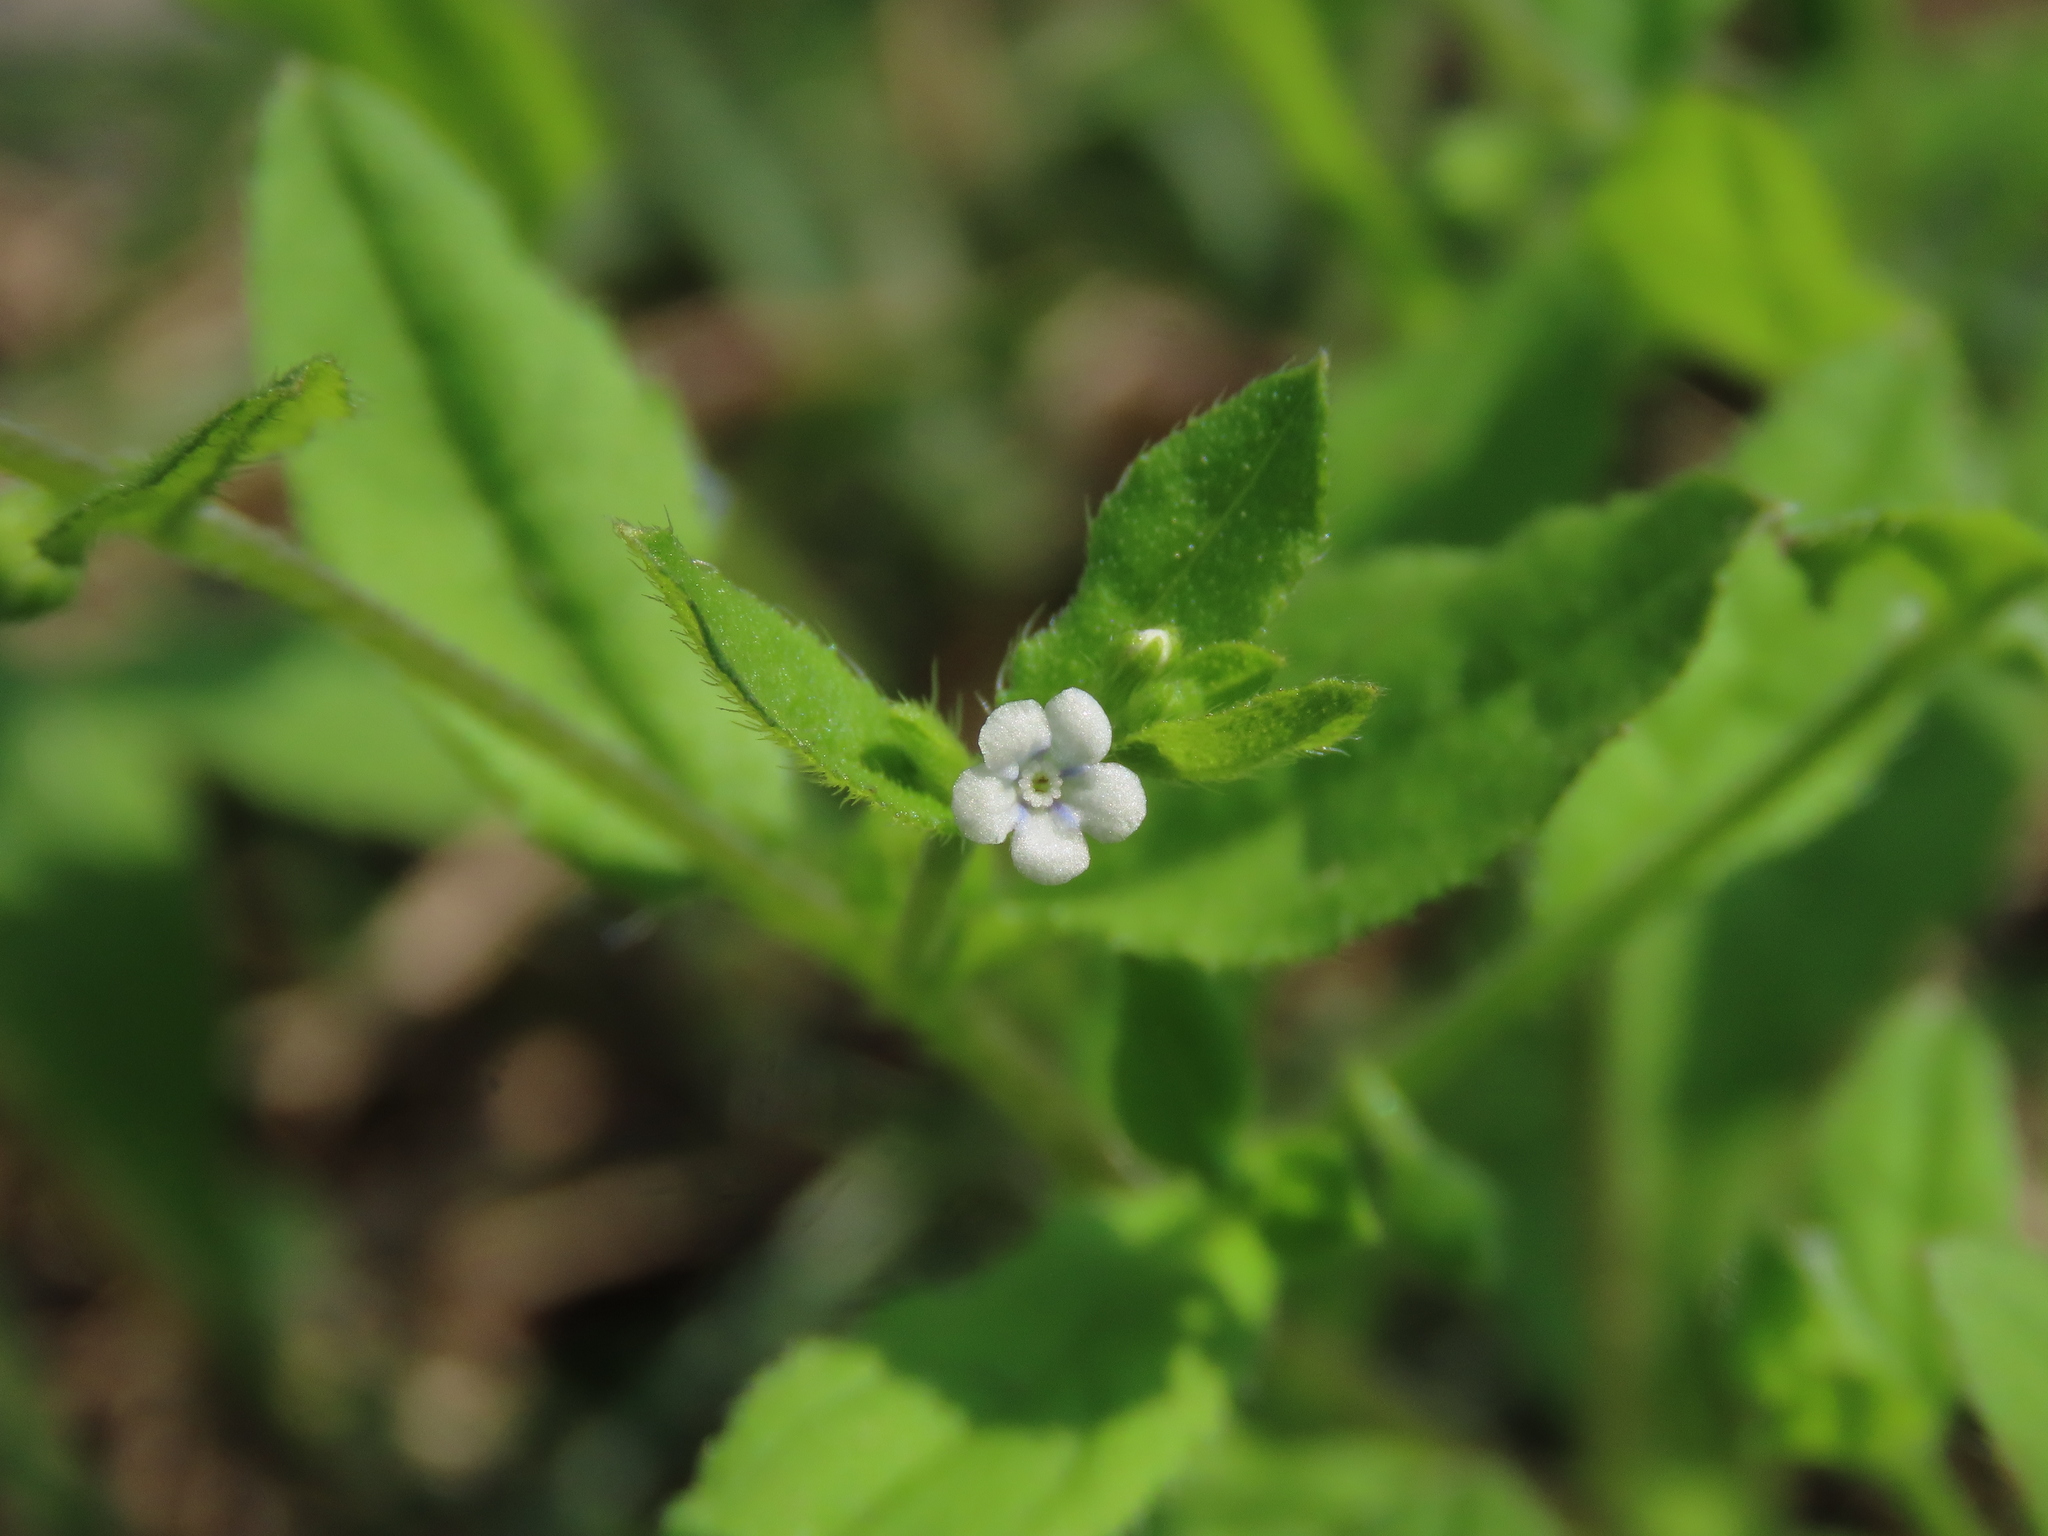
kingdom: Plantae
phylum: Tracheophyta
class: Magnoliopsida
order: Boraginales
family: Boraginaceae
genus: Bothriospermum
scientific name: Bothriospermum zeylanicum
